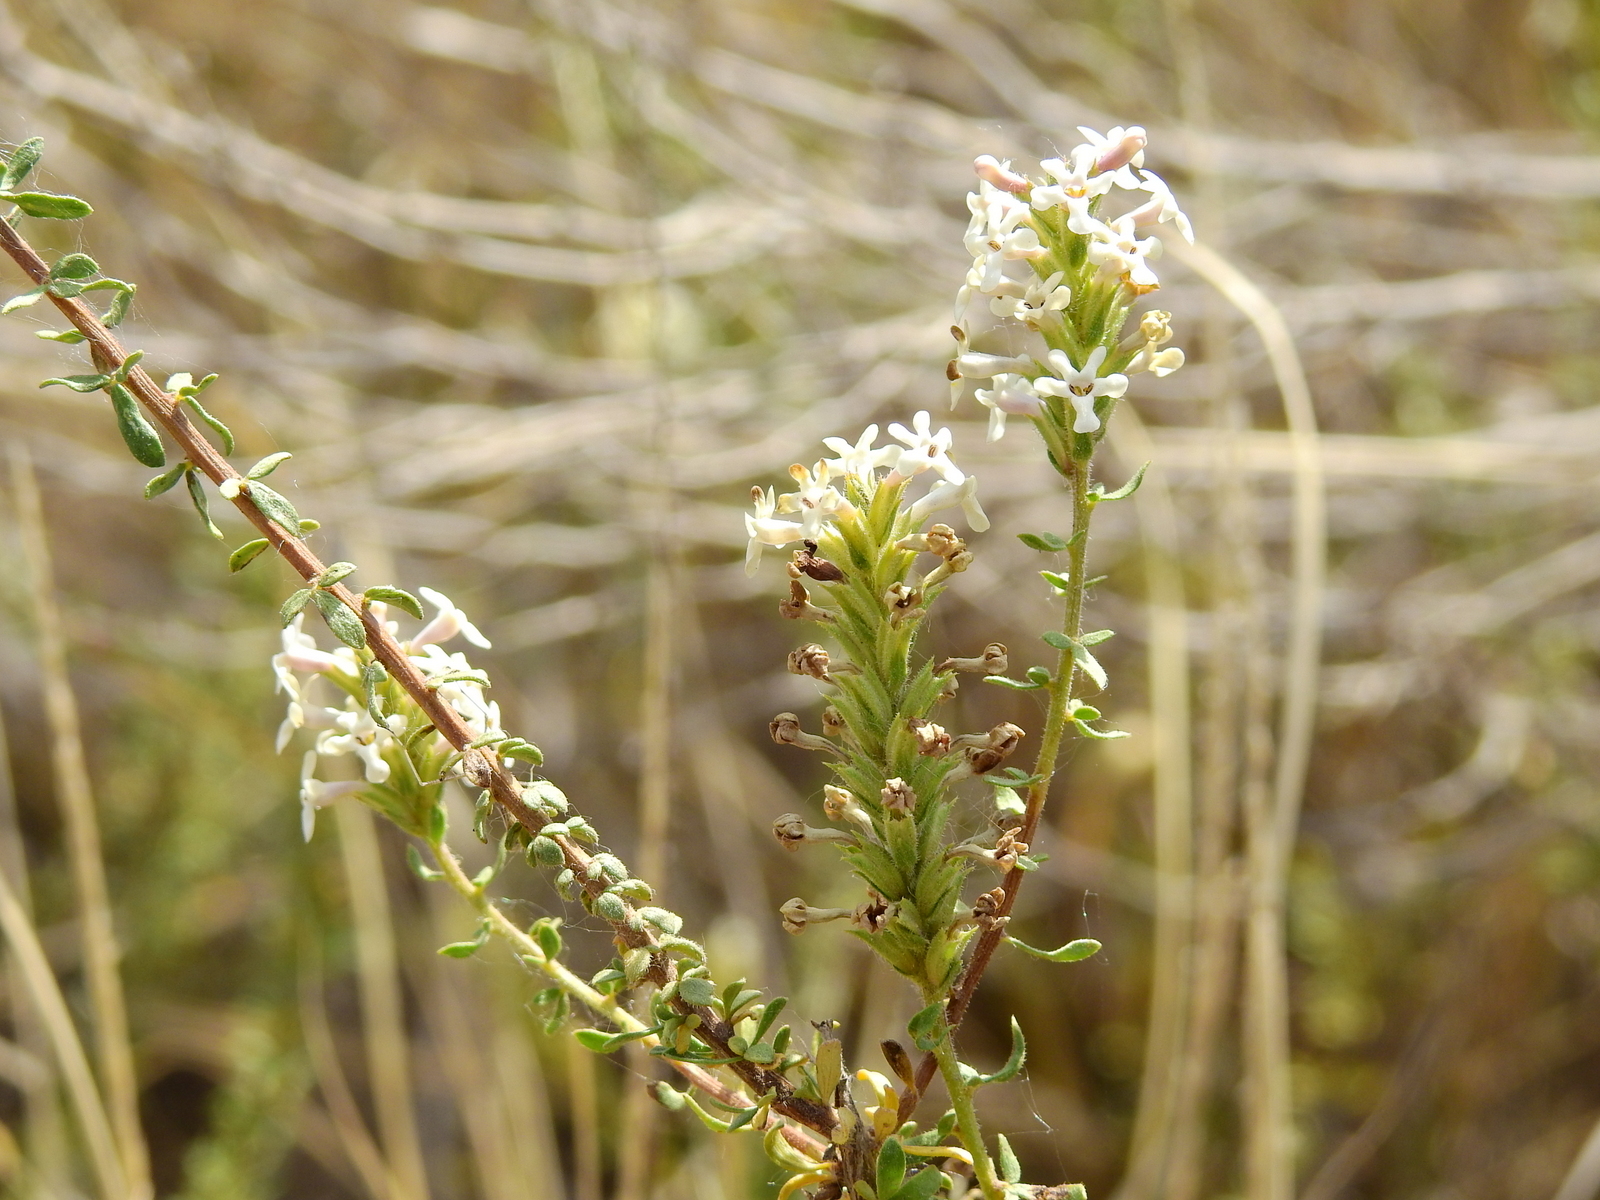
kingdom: Plantae
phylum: Tracheophyta
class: Magnoliopsida
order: Lamiales
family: Verbenaceae
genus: Mulguraea
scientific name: Mulguraea aspera
